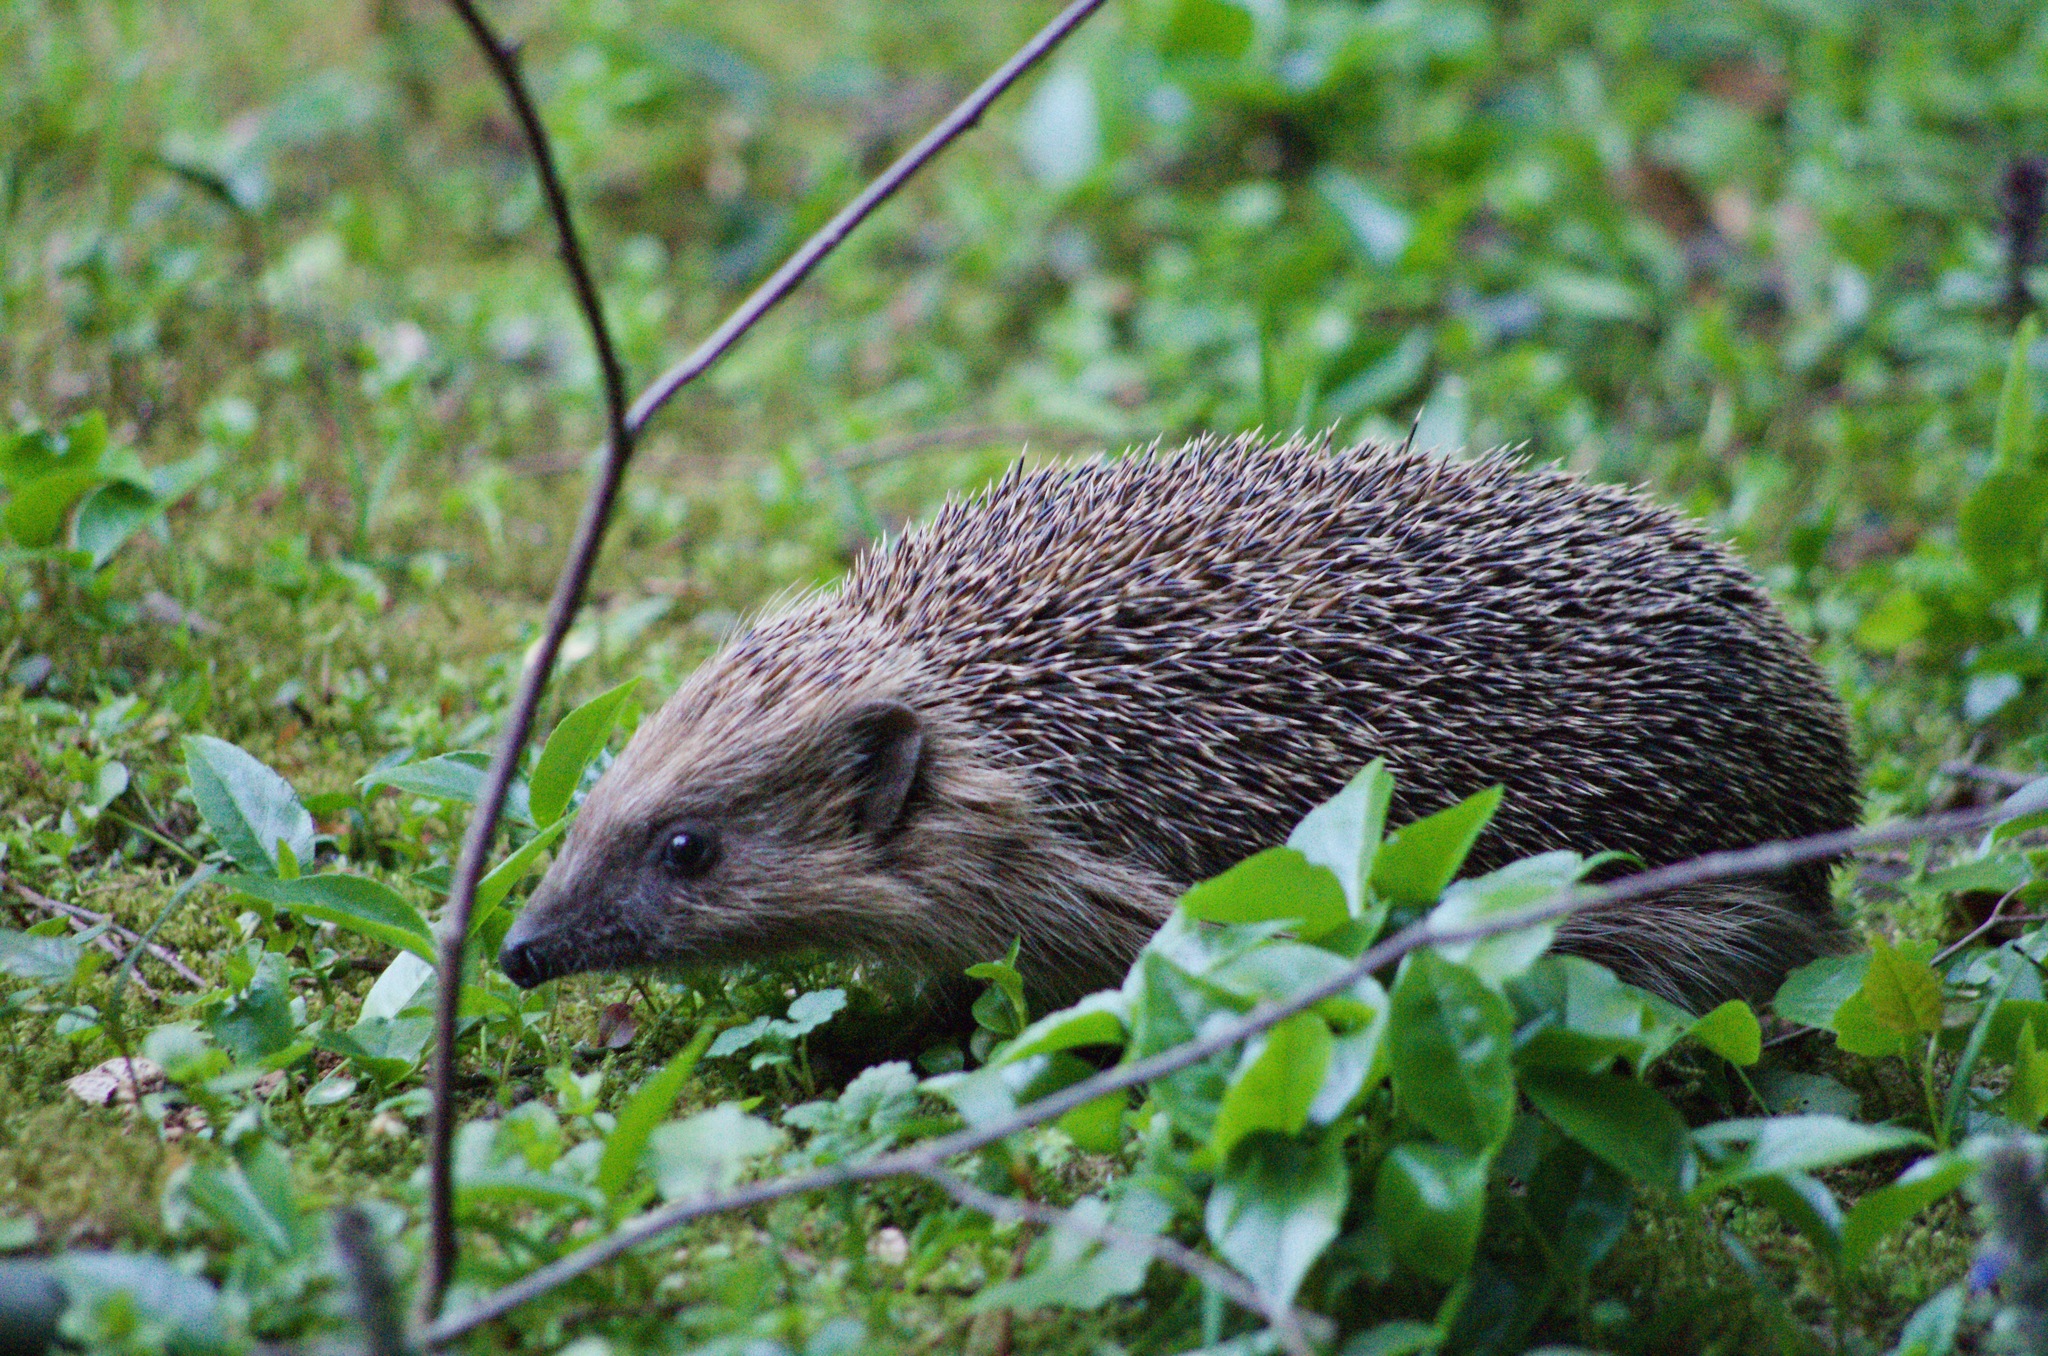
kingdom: Animalia
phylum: Chordata
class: Mammalia
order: Erinaceomorpha
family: Erinaceidae
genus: Erinaceus
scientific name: Erinaceus europaeus
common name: West european hedgehog
